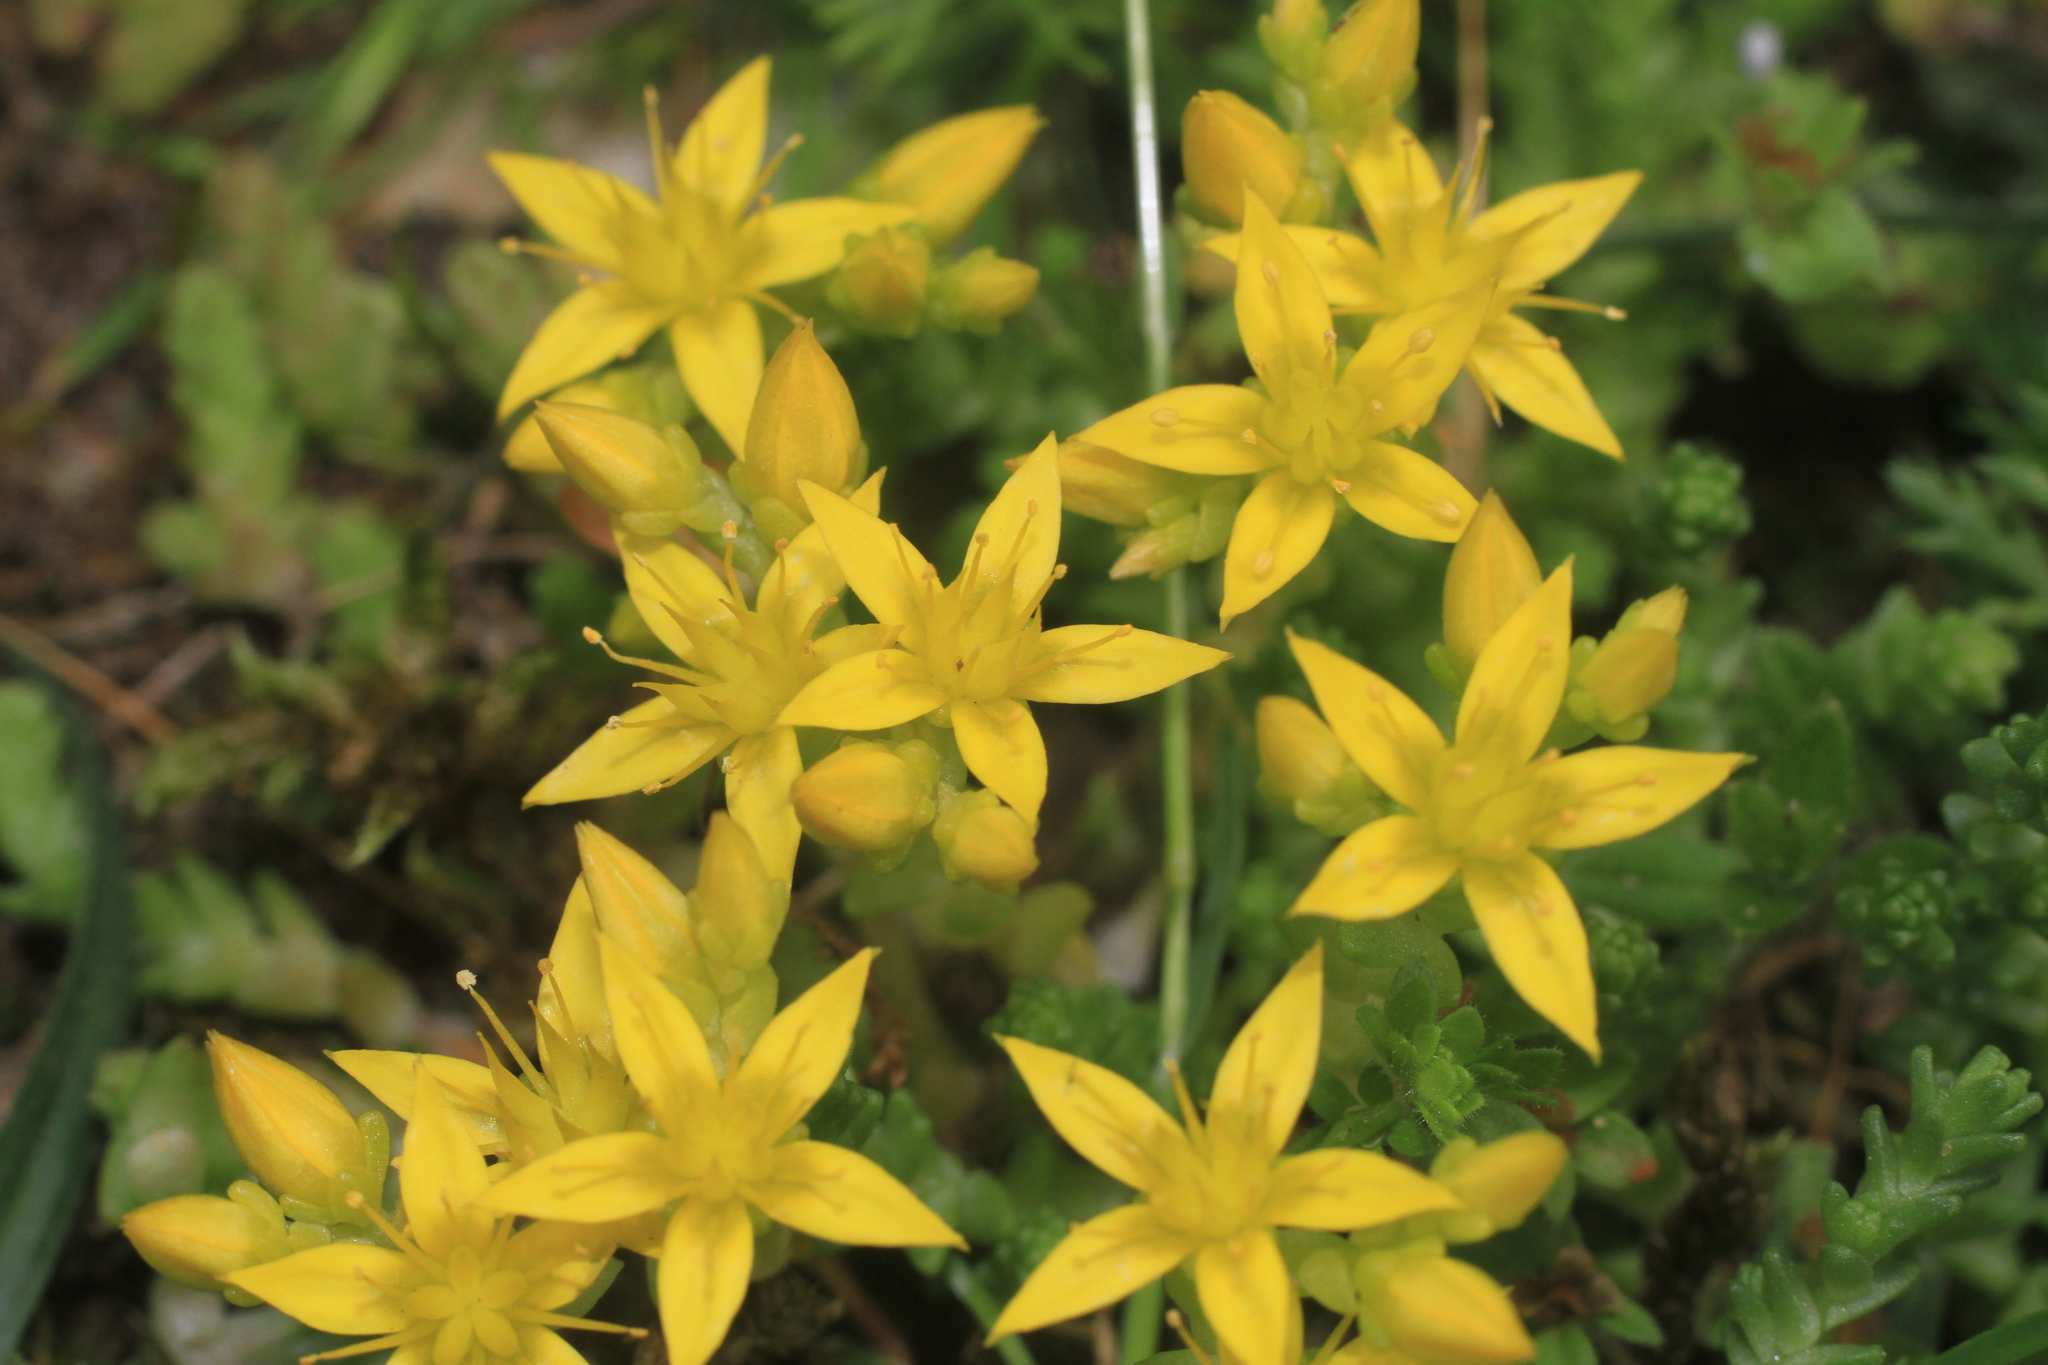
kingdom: Plantae
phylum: Tracheophyta
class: Magnoliopsida
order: Saxifragales
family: Crassulaceae
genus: Sedum
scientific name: Sedum acre
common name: Biting stonecrop
